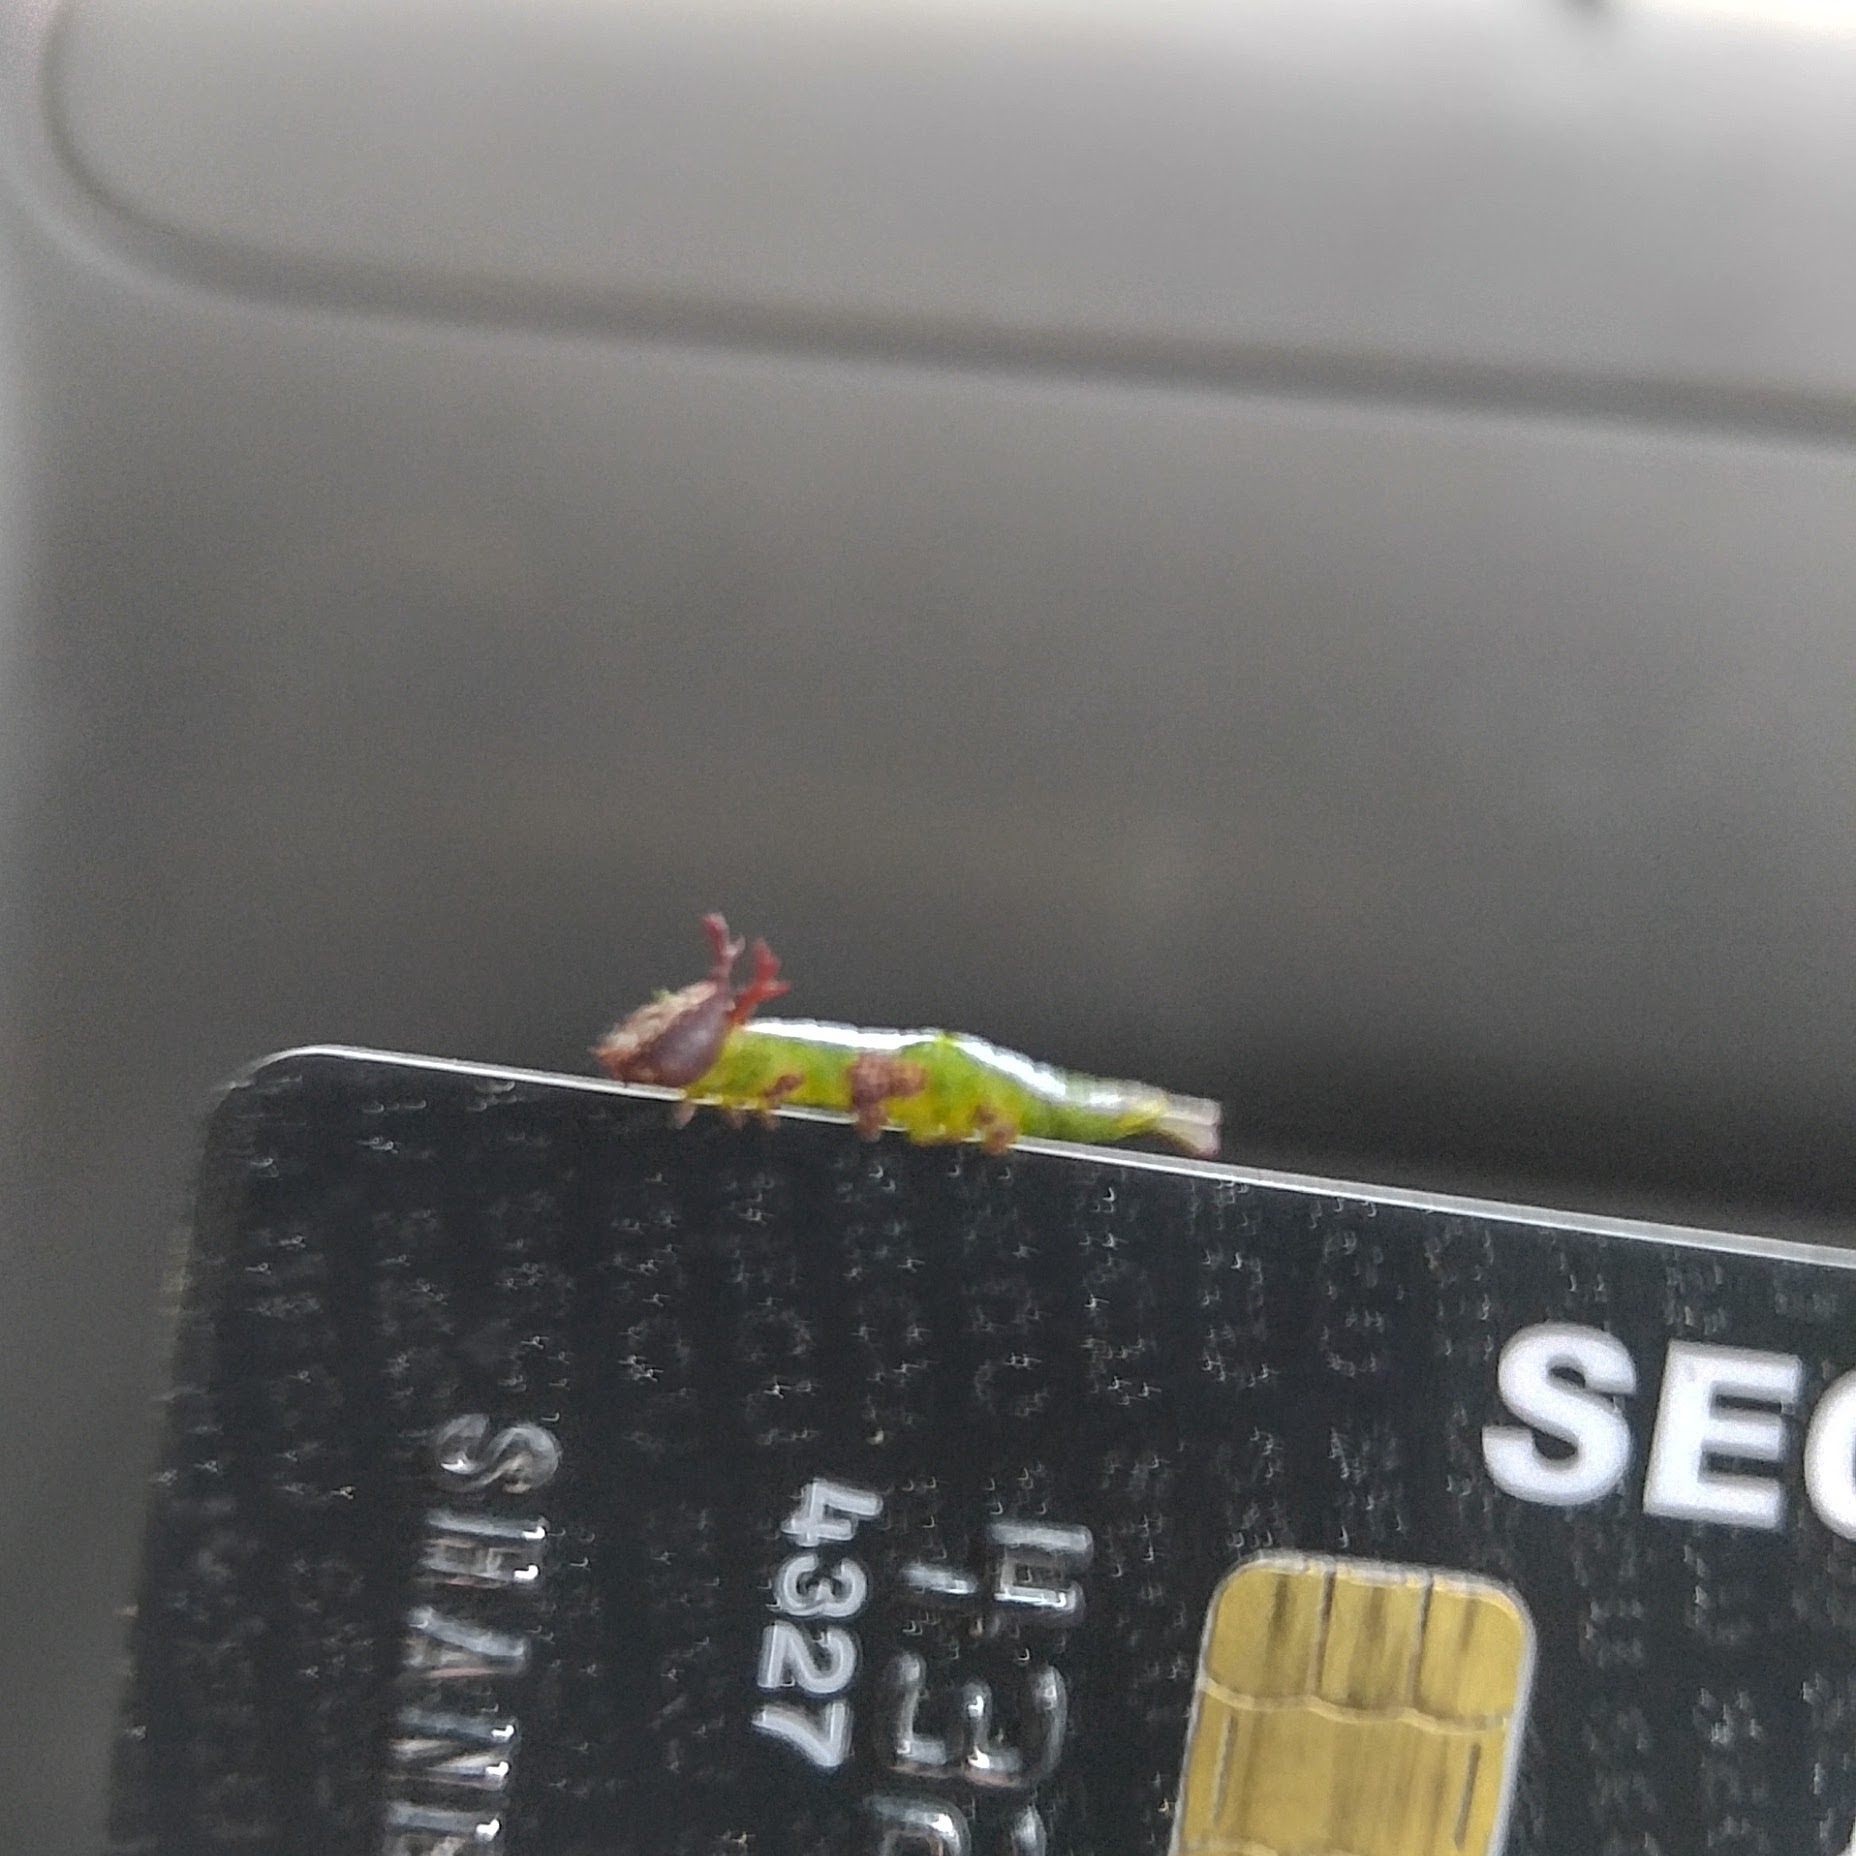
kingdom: Animalia
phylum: Arthropoda
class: Insecta
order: Lepidoptera
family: Notodontidae
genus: Disphragis
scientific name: Disphragis Cecrita biundata
